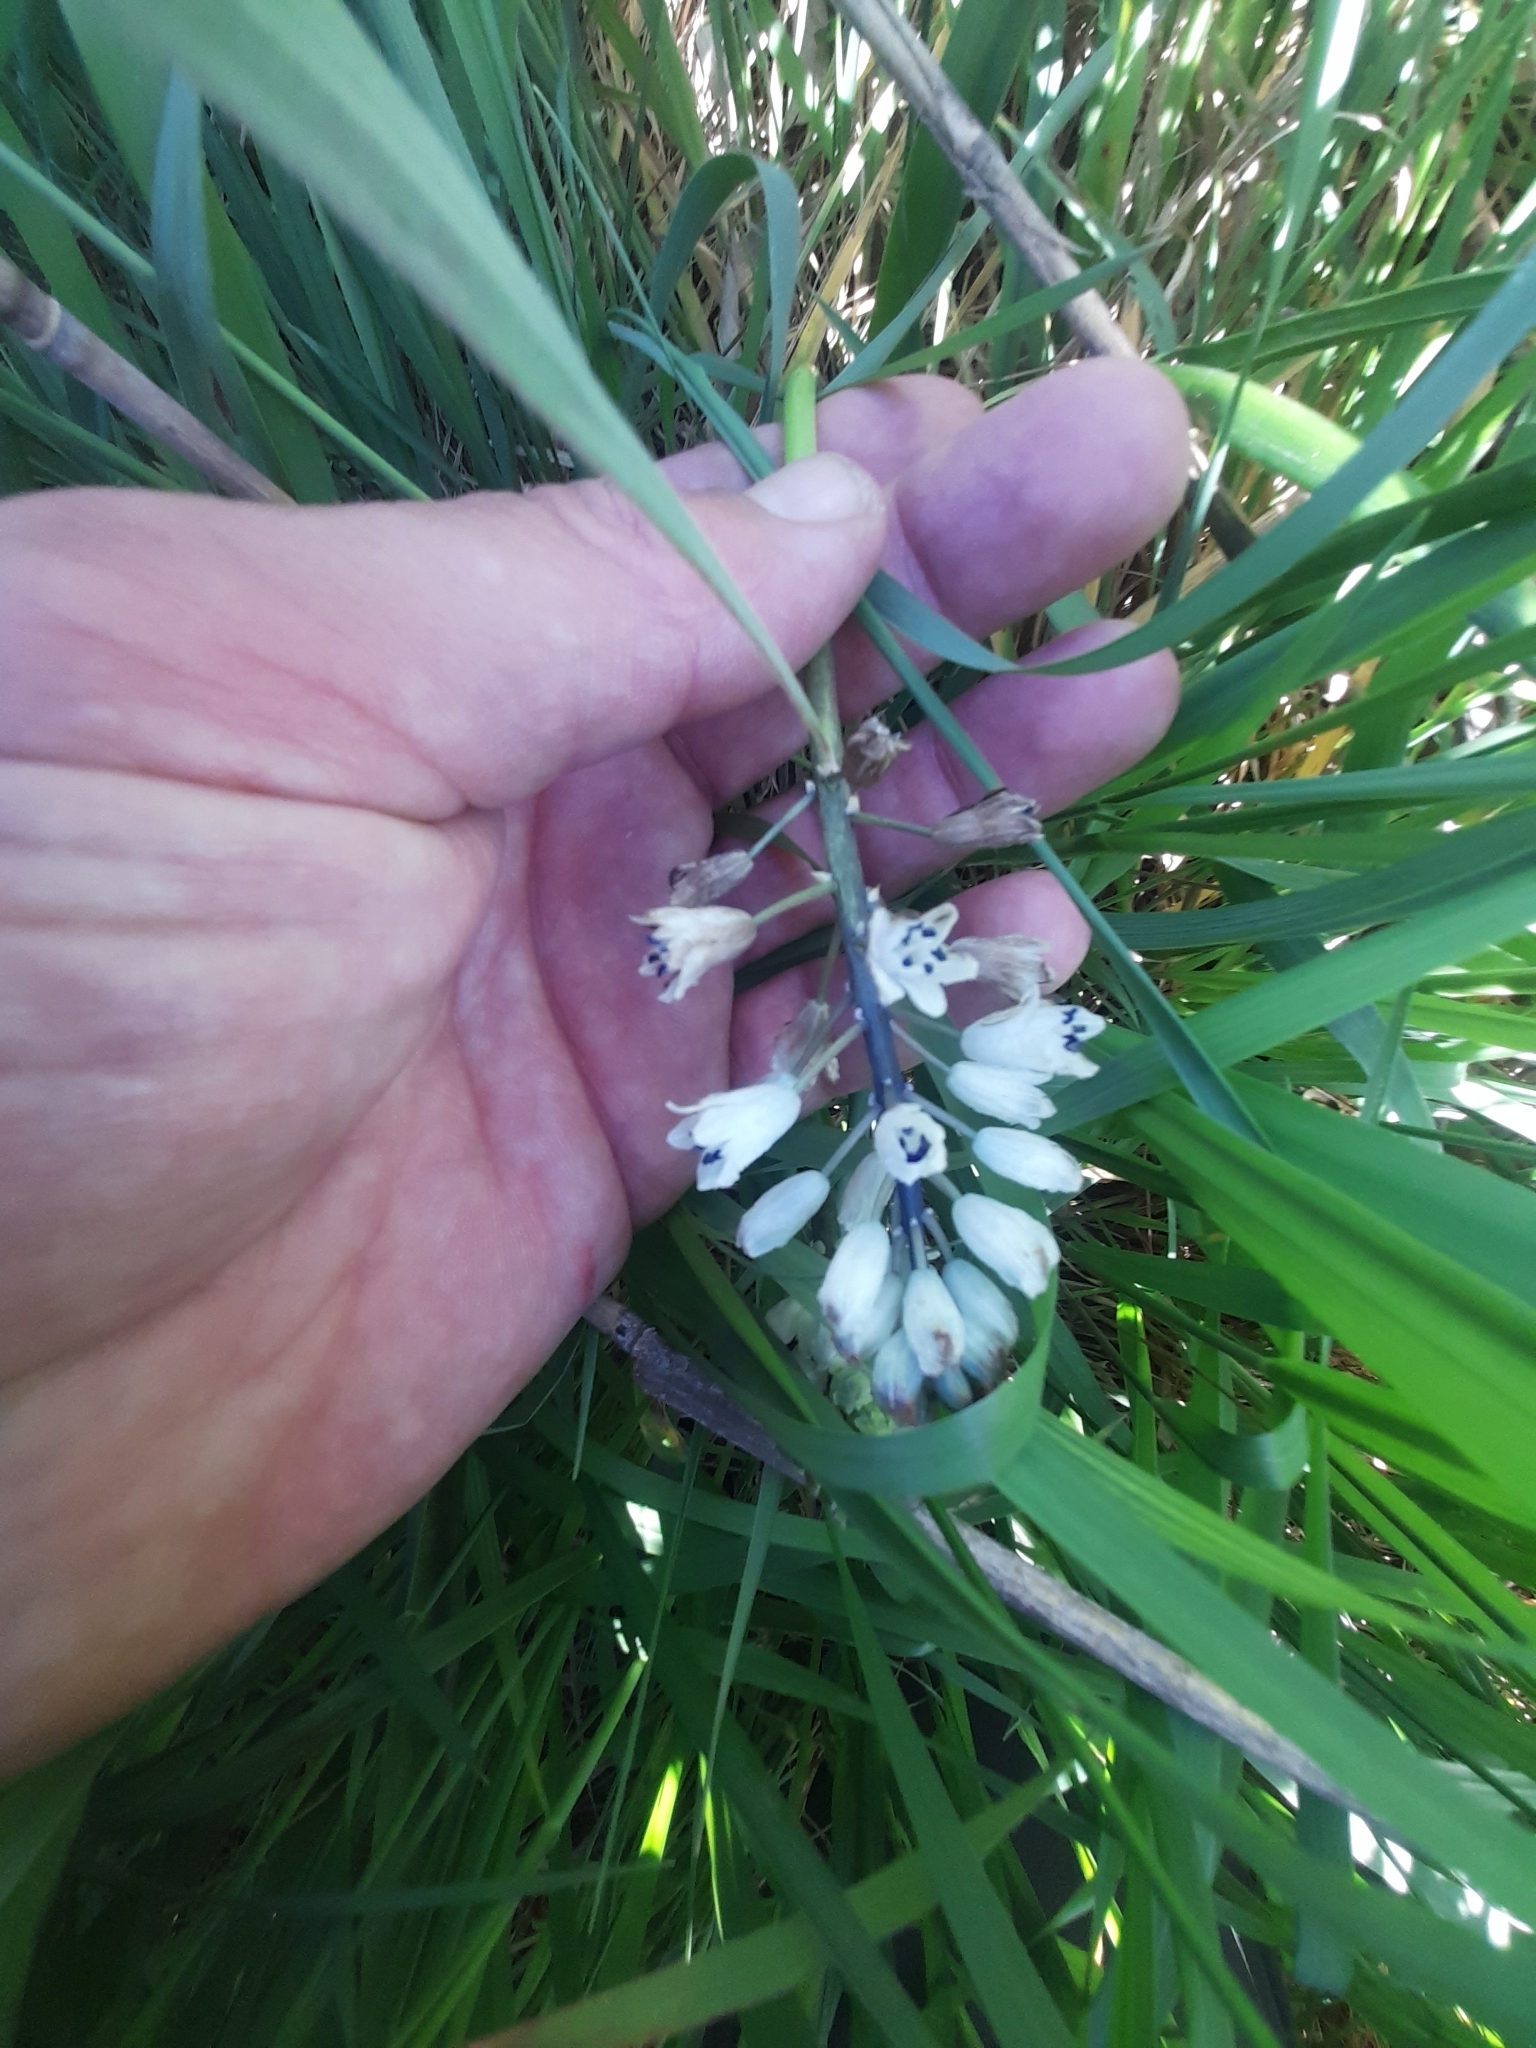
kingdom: Plantae
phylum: Tracheophyta
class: Liliopsida
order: Asparagales
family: Asparagaceae
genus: Bellevalia
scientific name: Bellevalia romana
